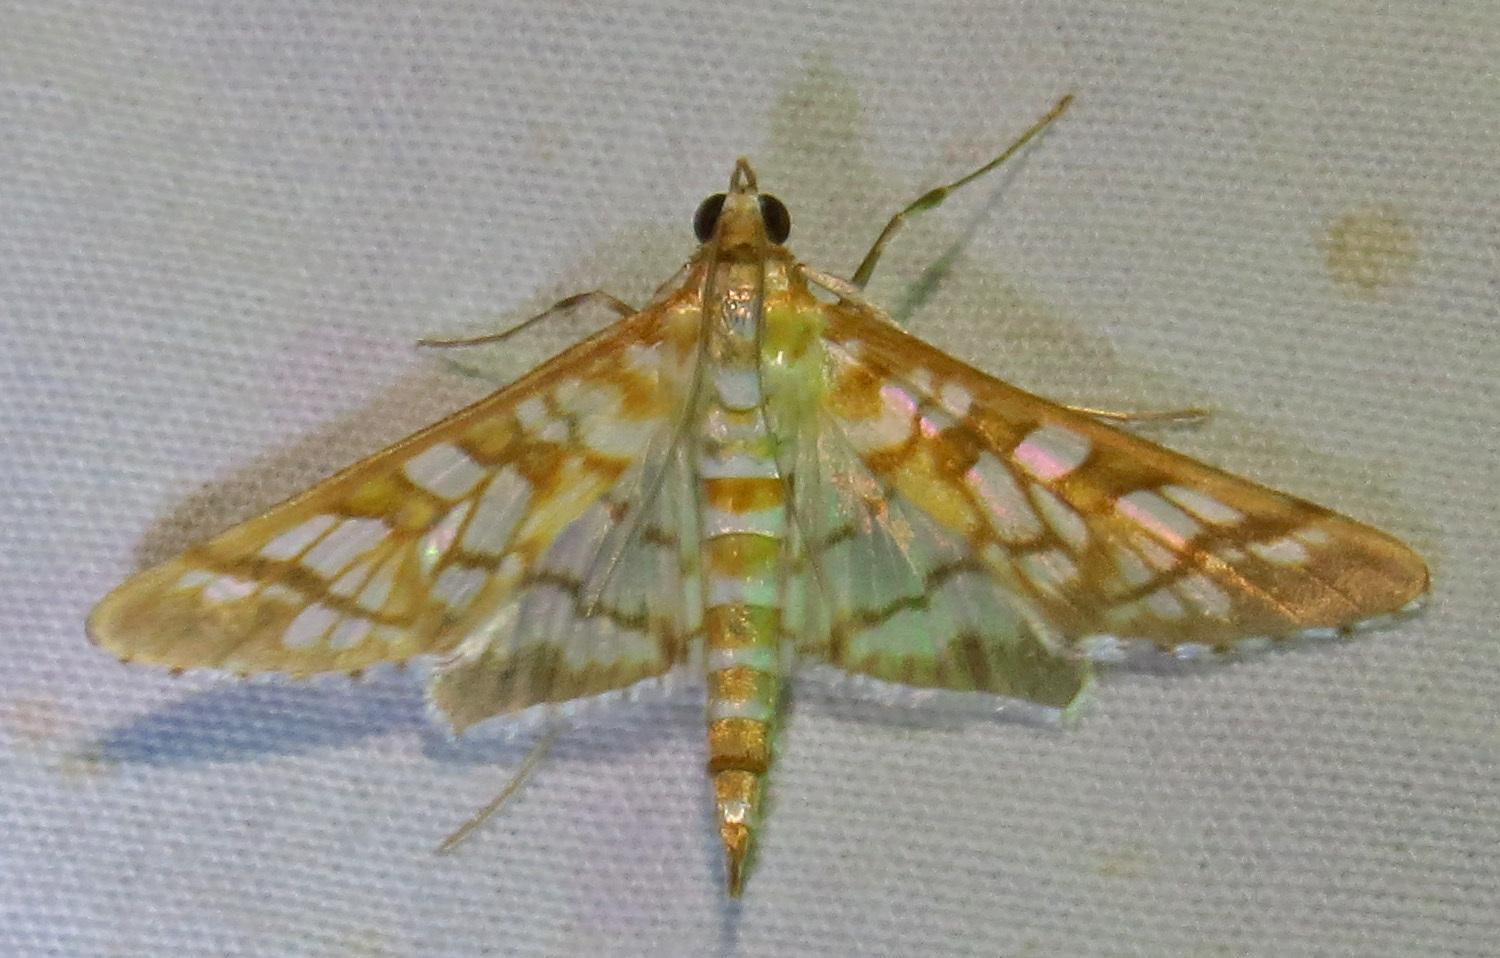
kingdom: Animalia
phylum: Arthropoda
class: Insecta
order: Lepidoptera
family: Crambidae
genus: Epipagis
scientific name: Epipagis fenestralis
